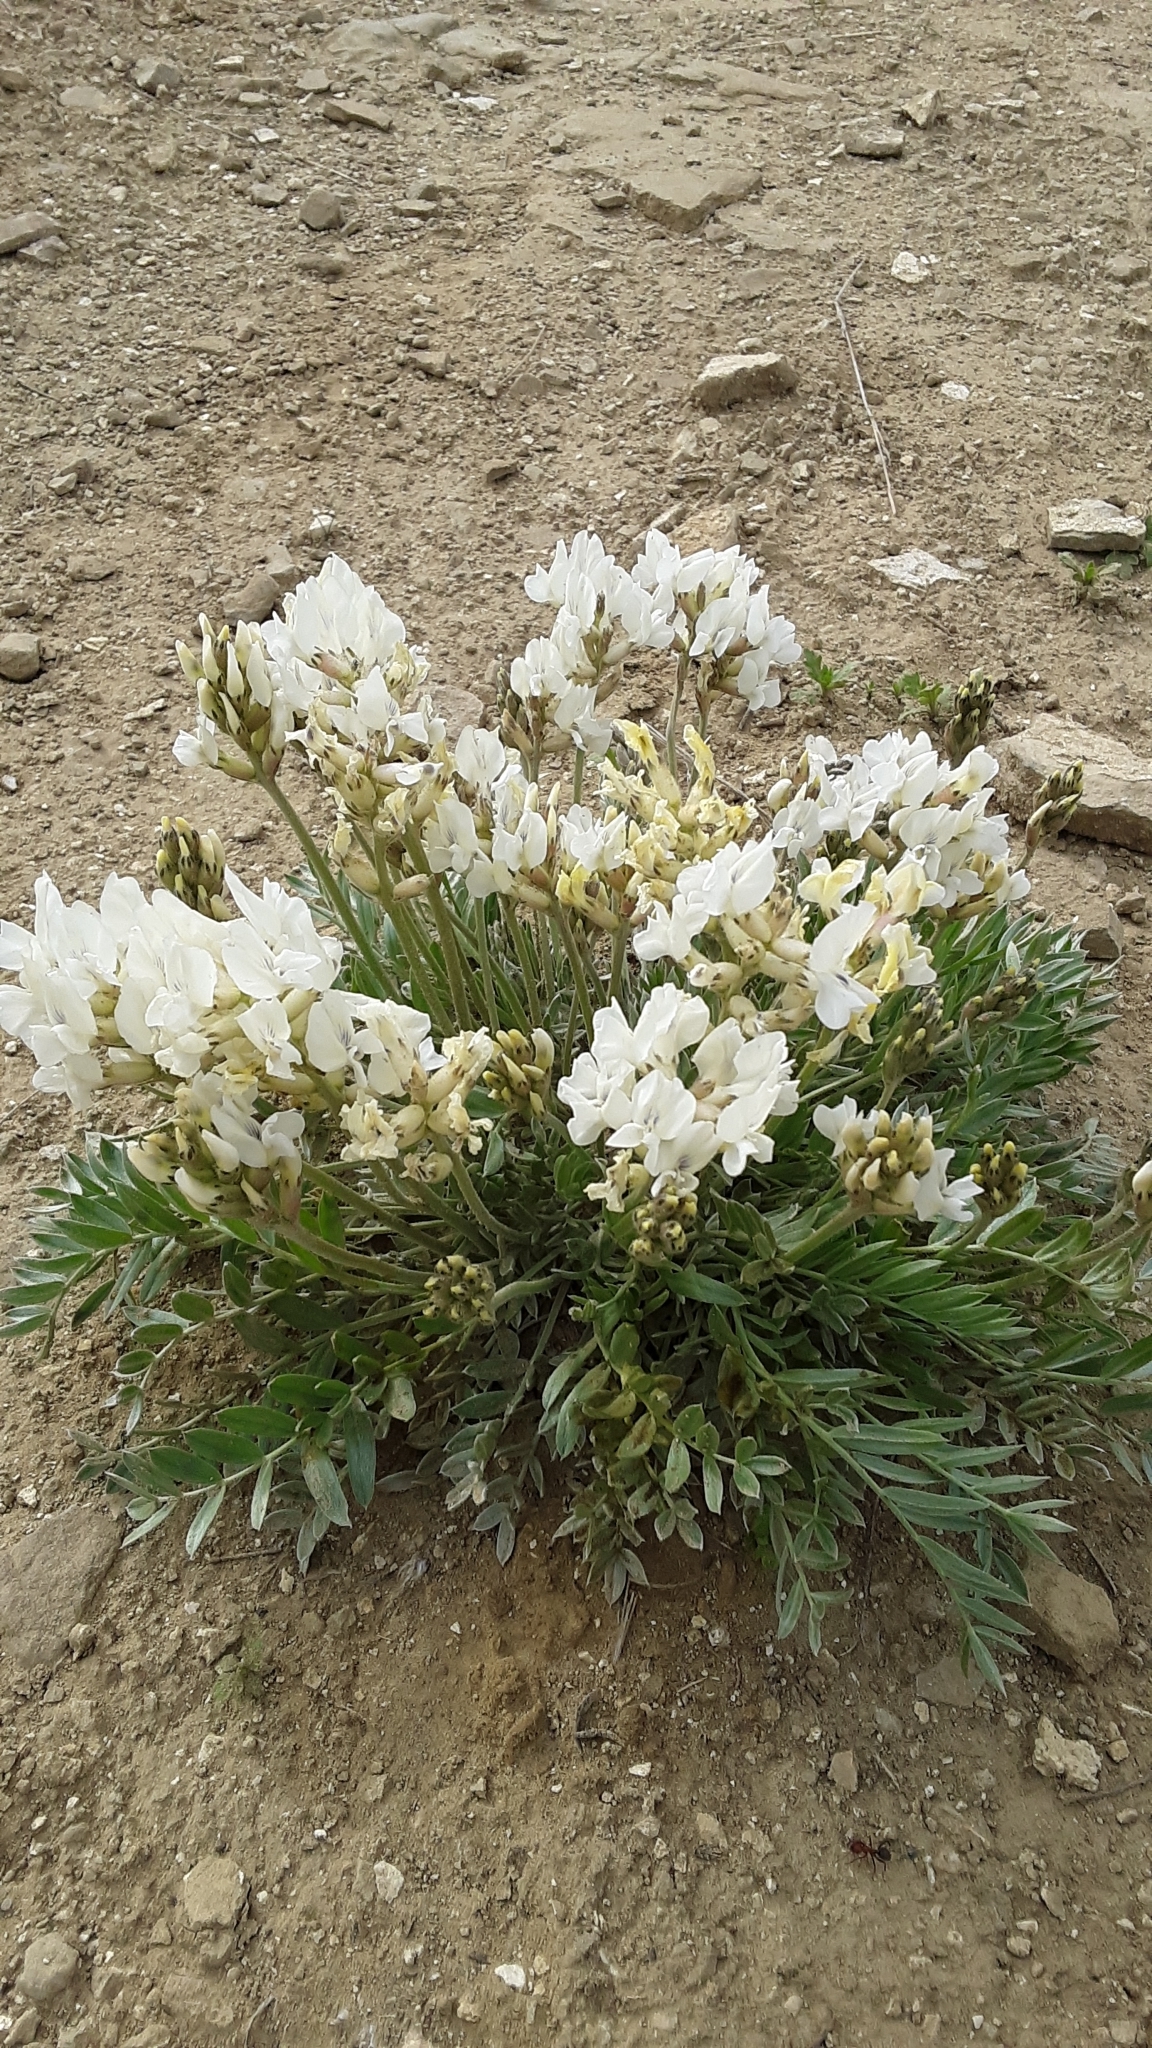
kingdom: Plantae
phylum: Tracheophyta
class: Magnoliopsida
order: Fabales
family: Fabaceae
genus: Oxytropis
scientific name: Oxytropis sericea
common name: Silky locoweed
